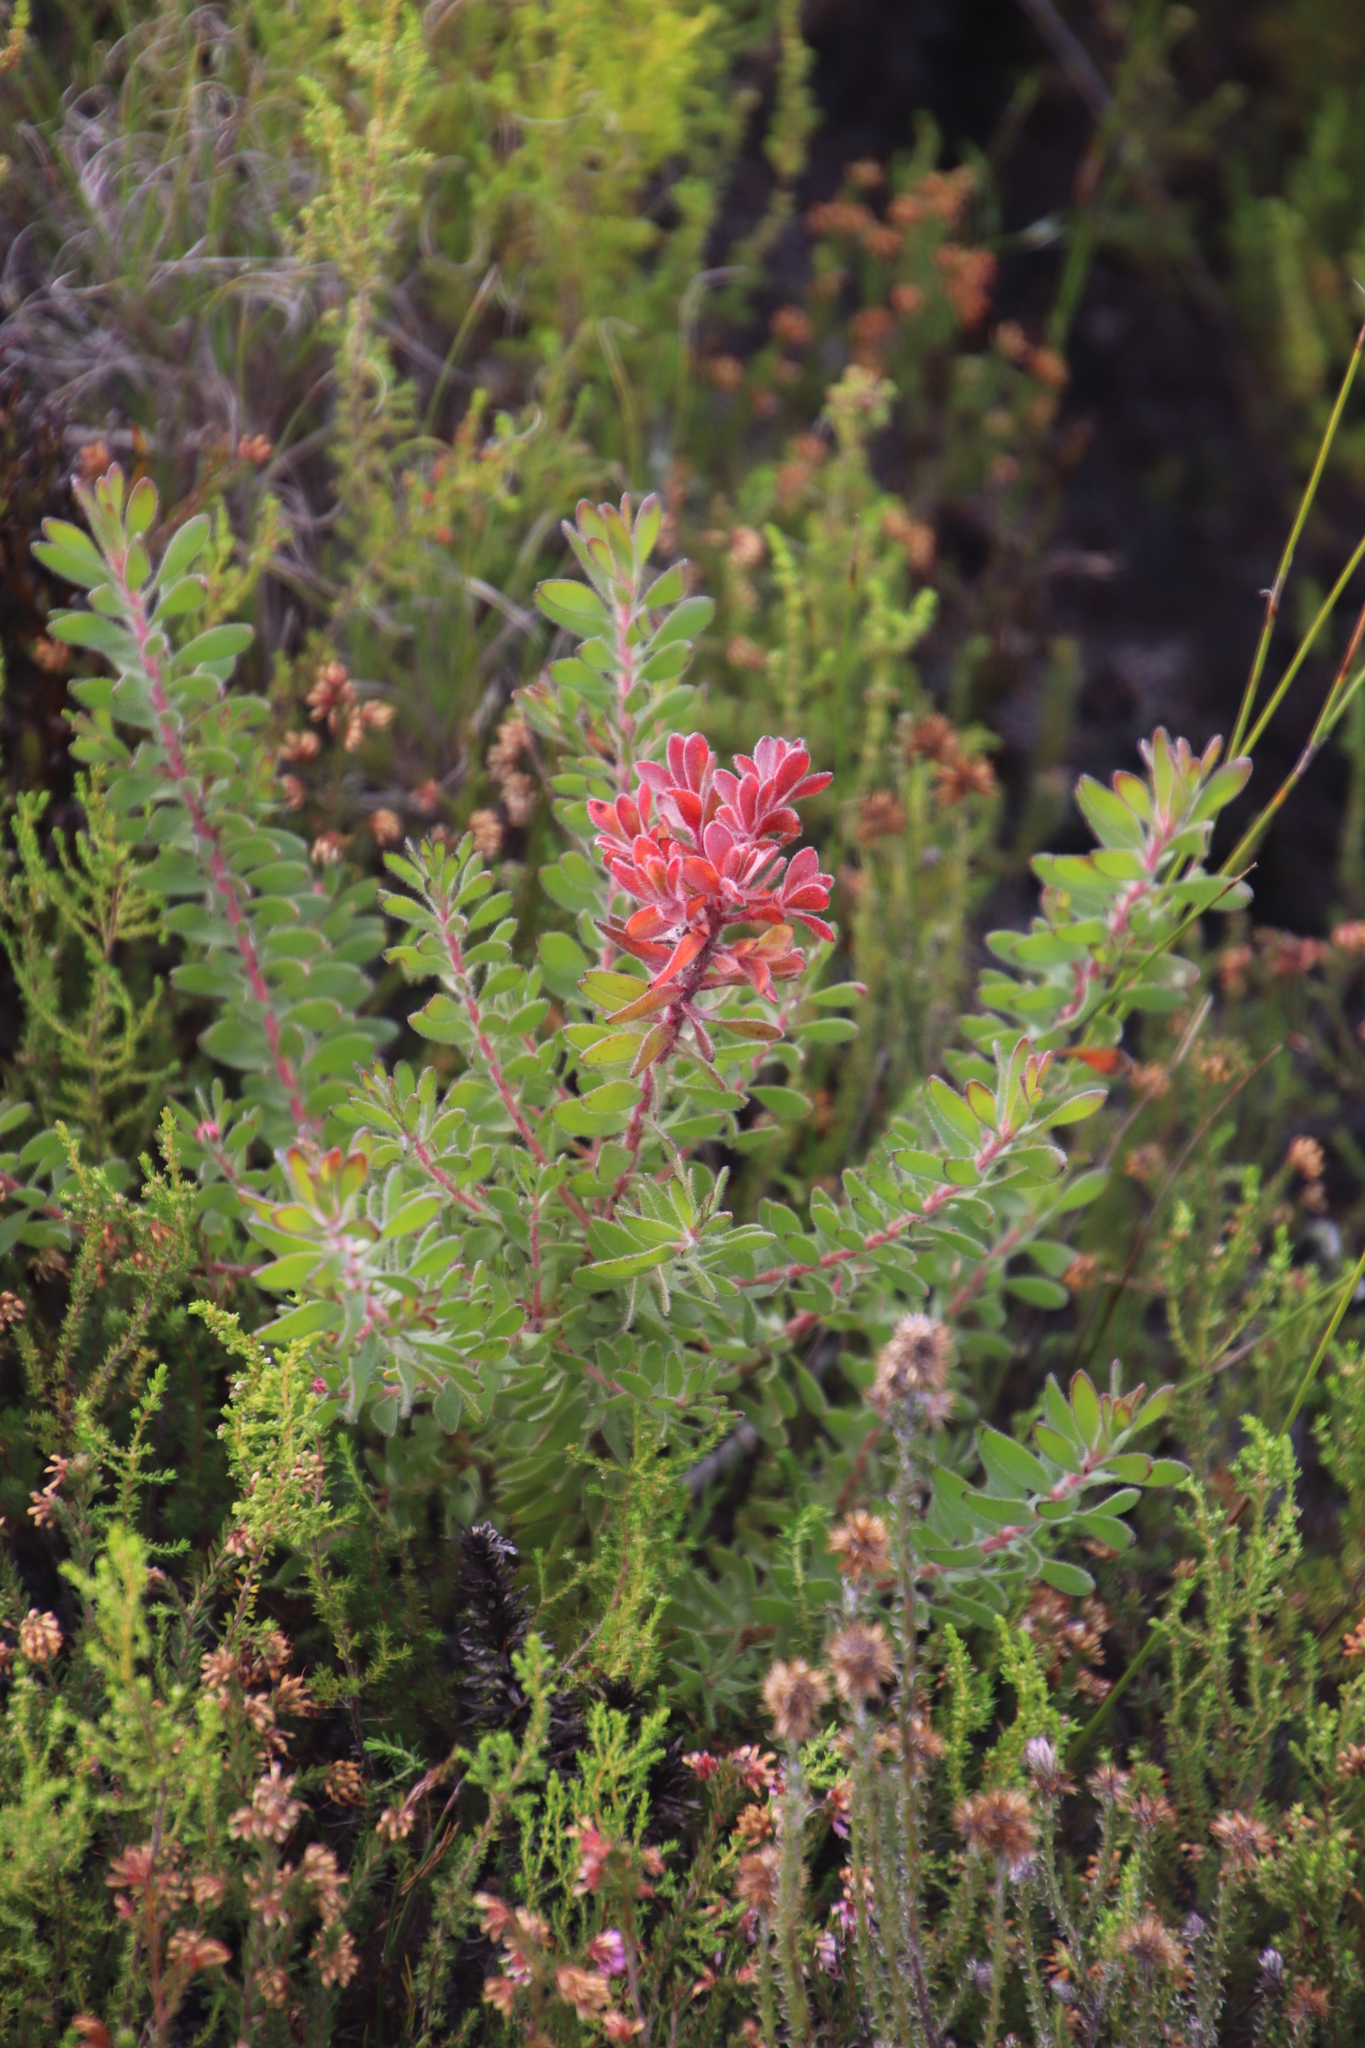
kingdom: Plantae
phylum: Tracheophyta
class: Magnoliopsida
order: Proteales
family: Proteaceae
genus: Diastella
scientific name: Diastella divaricata
